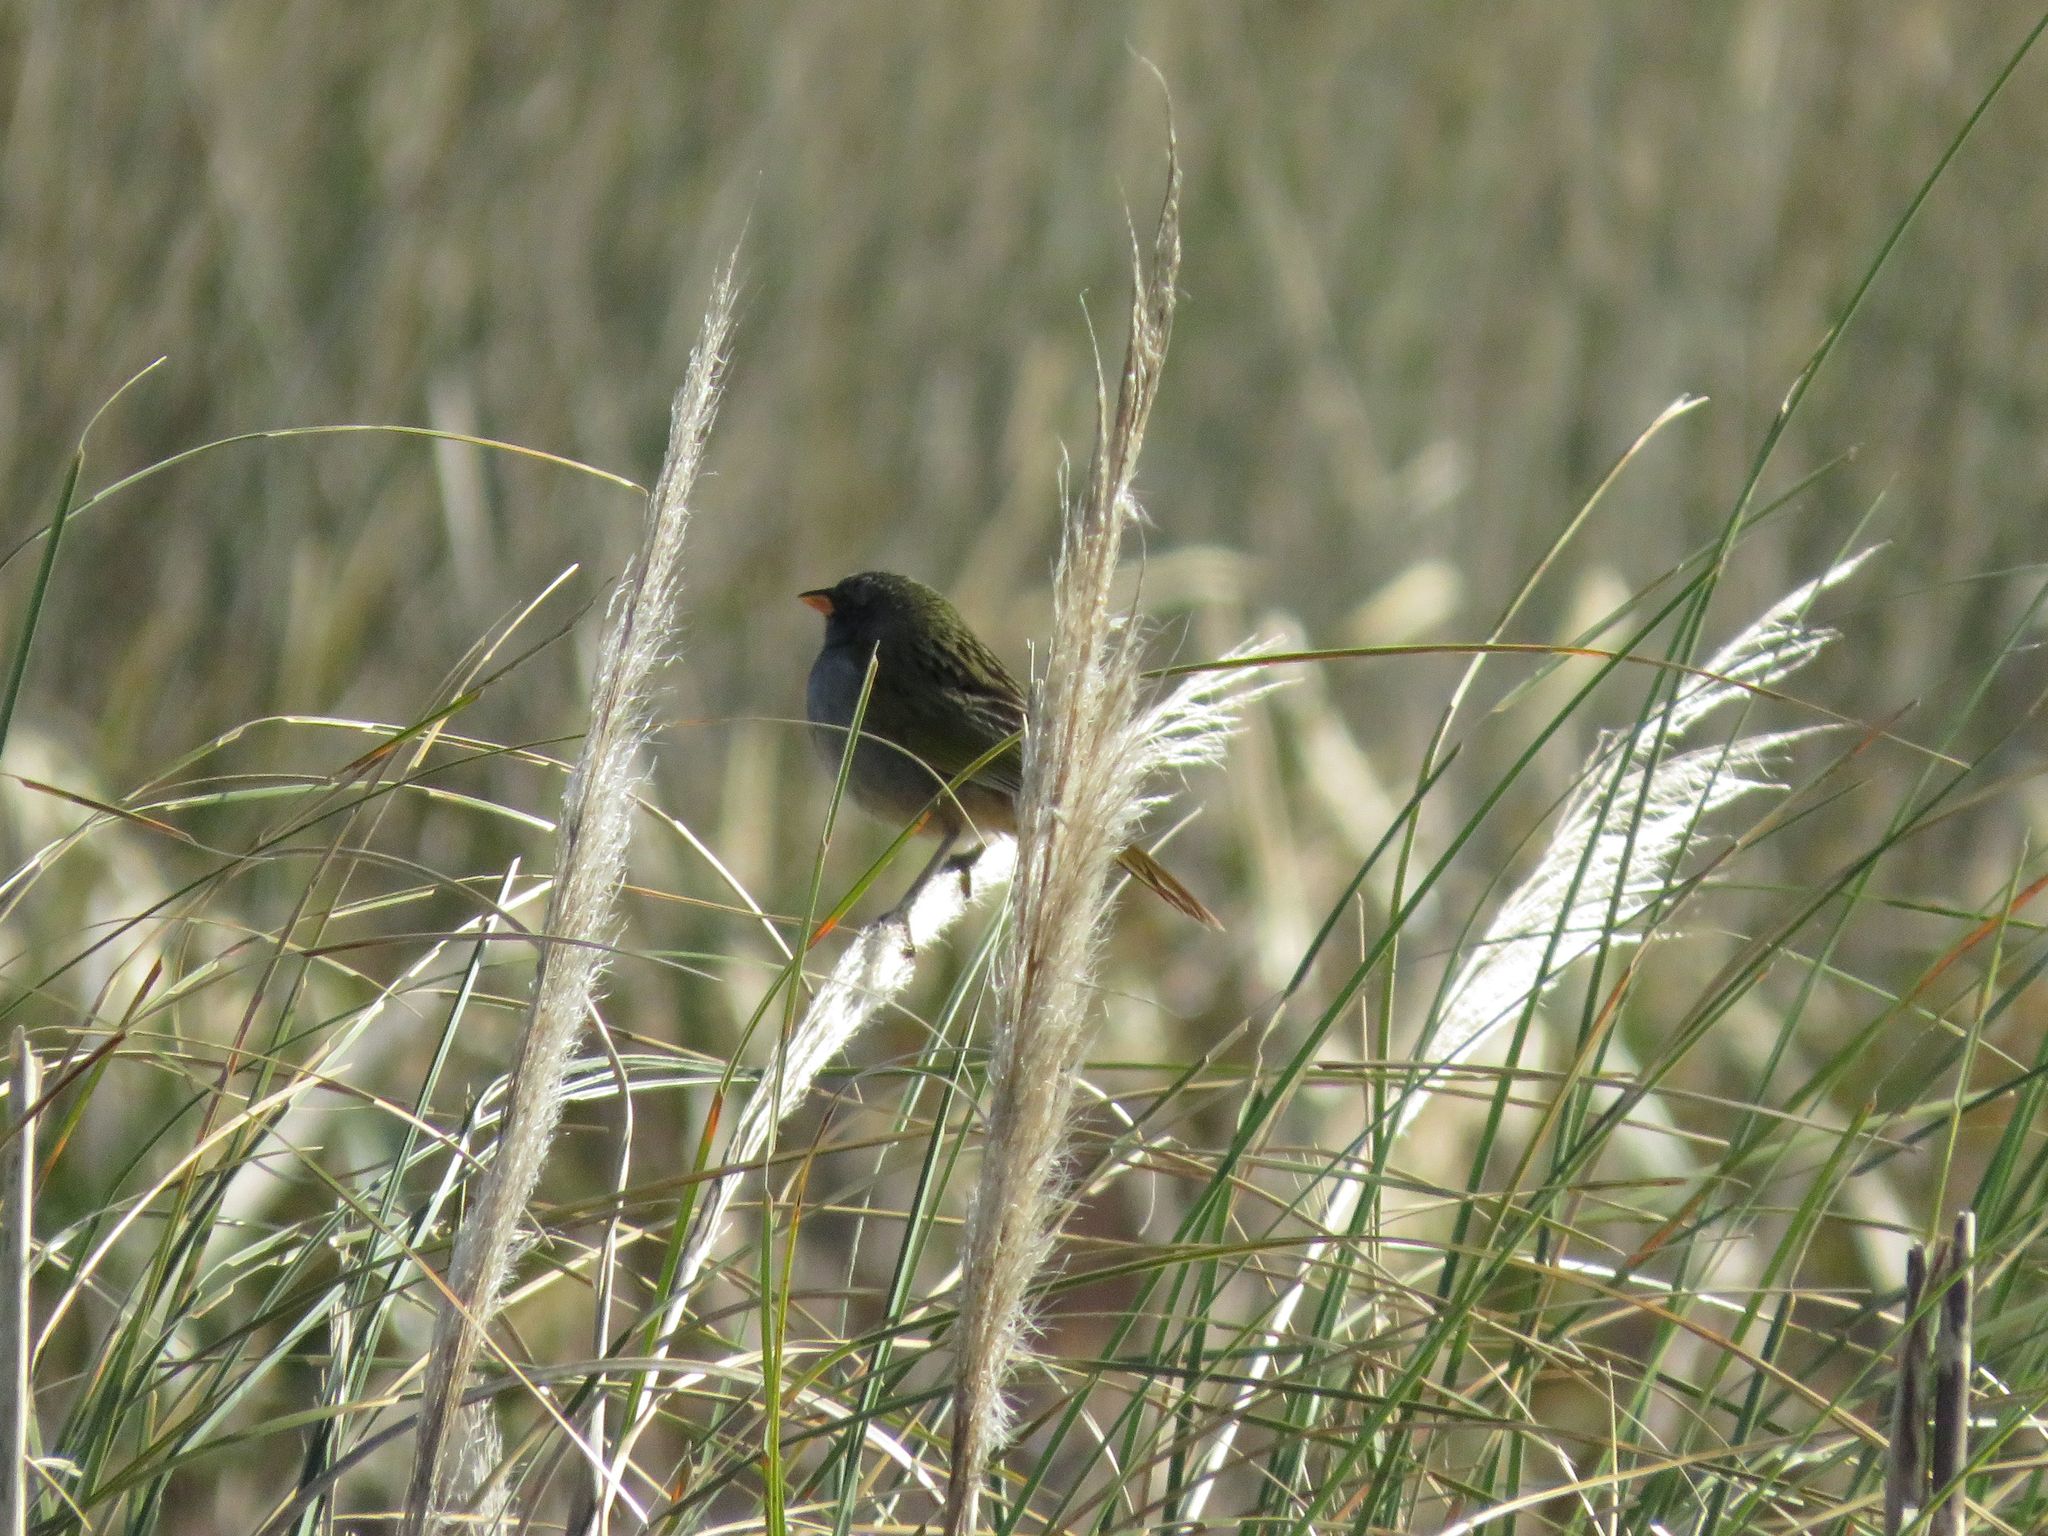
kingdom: Animalia
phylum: Chordata
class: Aves
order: Passeriformes
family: Thraupidae
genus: Embernagra
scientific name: Embernagra platensis
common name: Pampa finch
